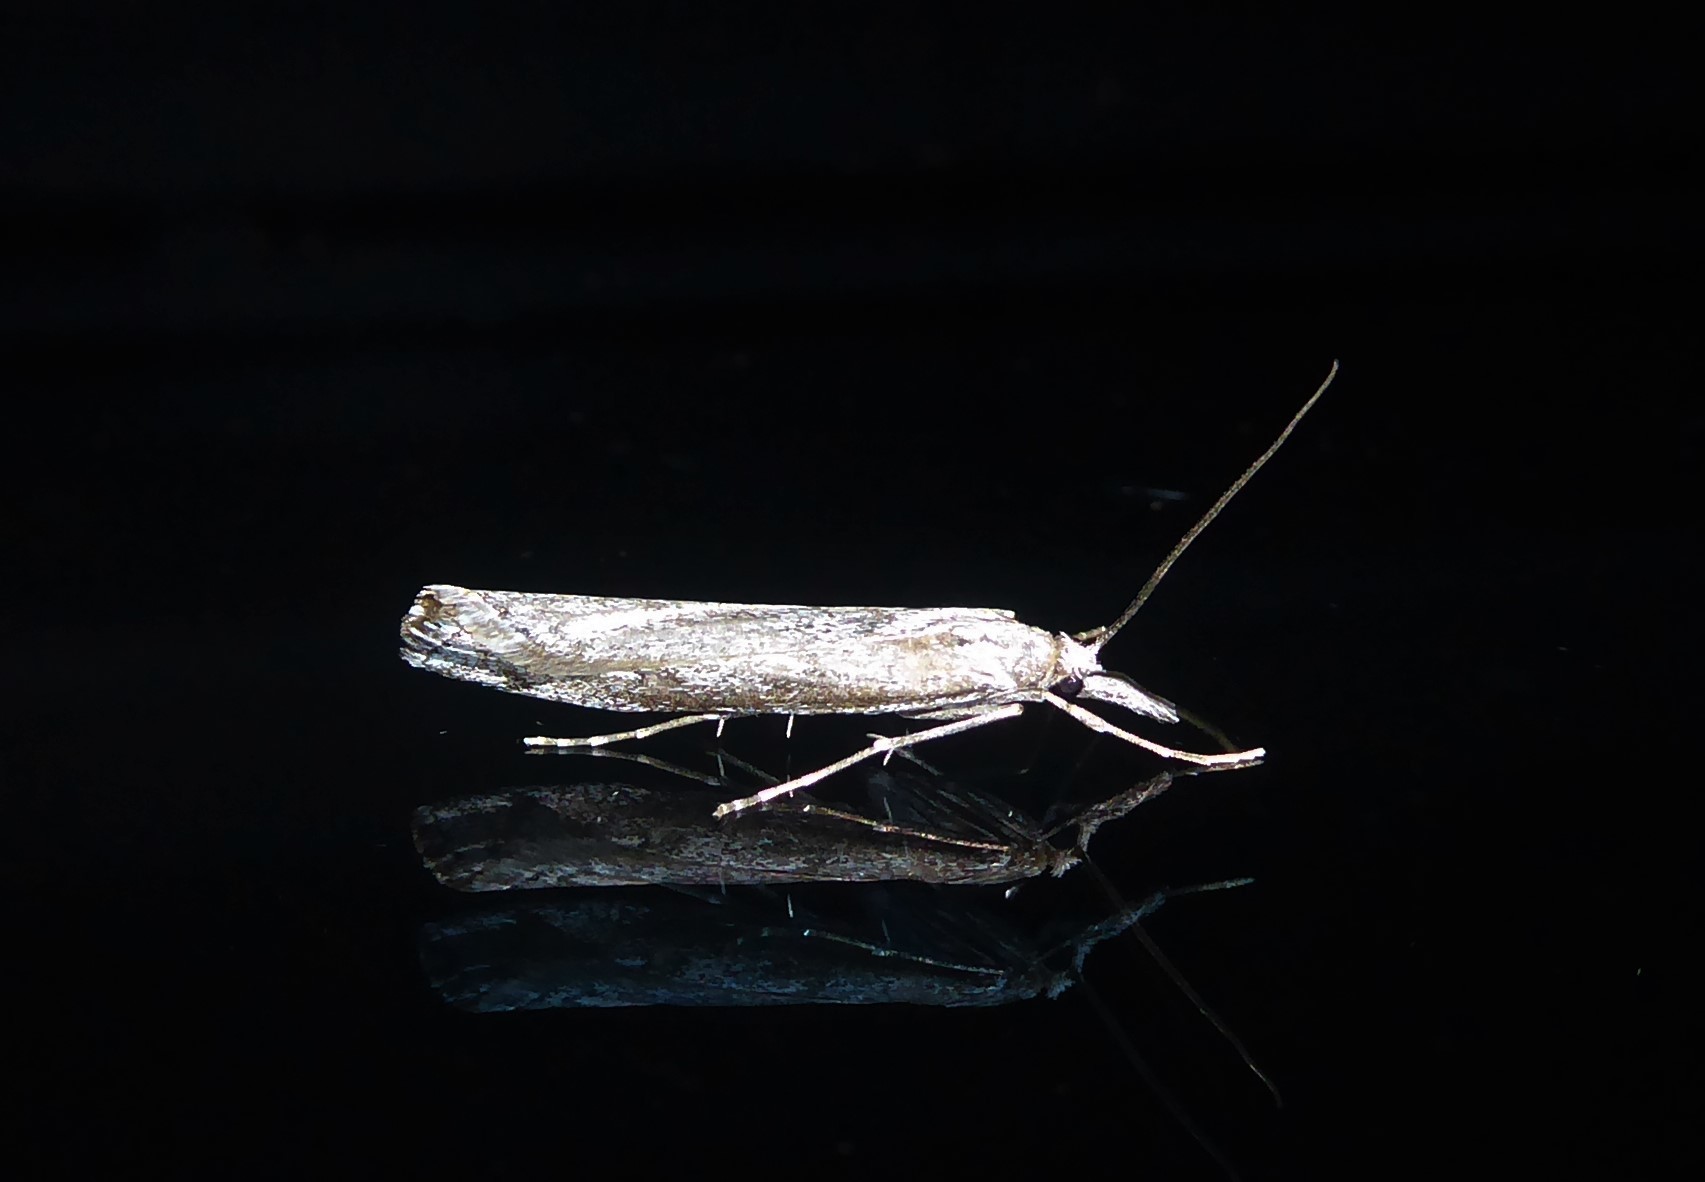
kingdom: Animalia
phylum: Arthropoda
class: Insecta
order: Lepidoptera
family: Crambidae
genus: Orocrambus
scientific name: Orocrambus cyclopicus
